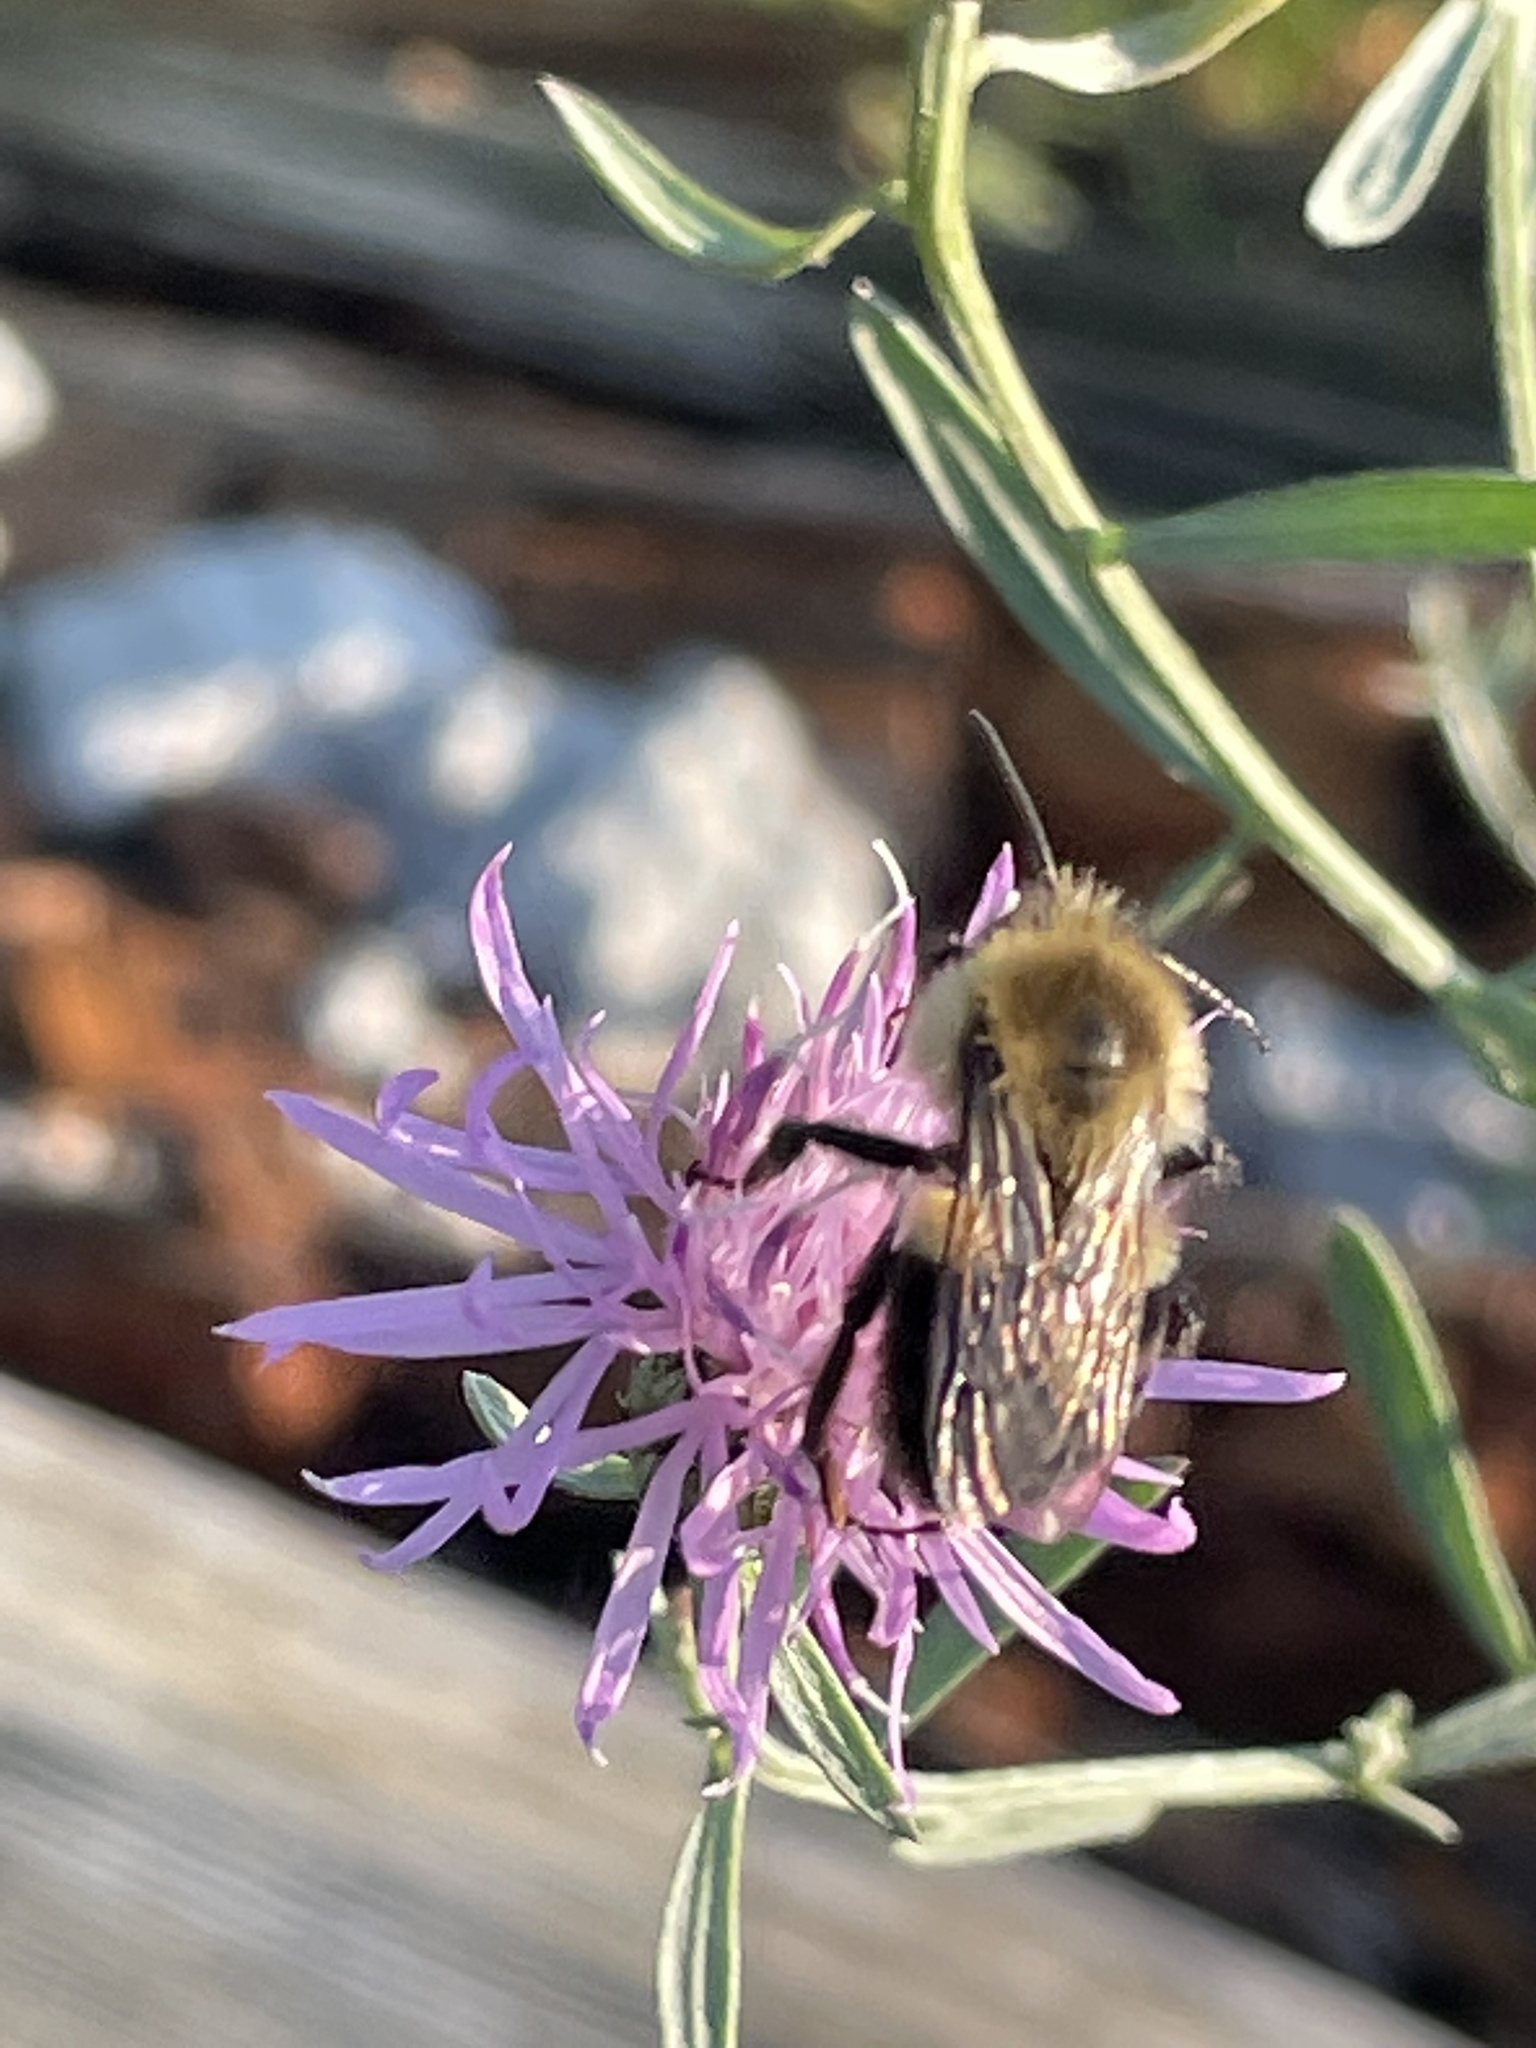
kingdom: Animalia
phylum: Arthropoda
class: Insecta
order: Hymenoptera
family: Apidae
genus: Bombus
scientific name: Bombus impatiens
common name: Common eastern bumble bee
